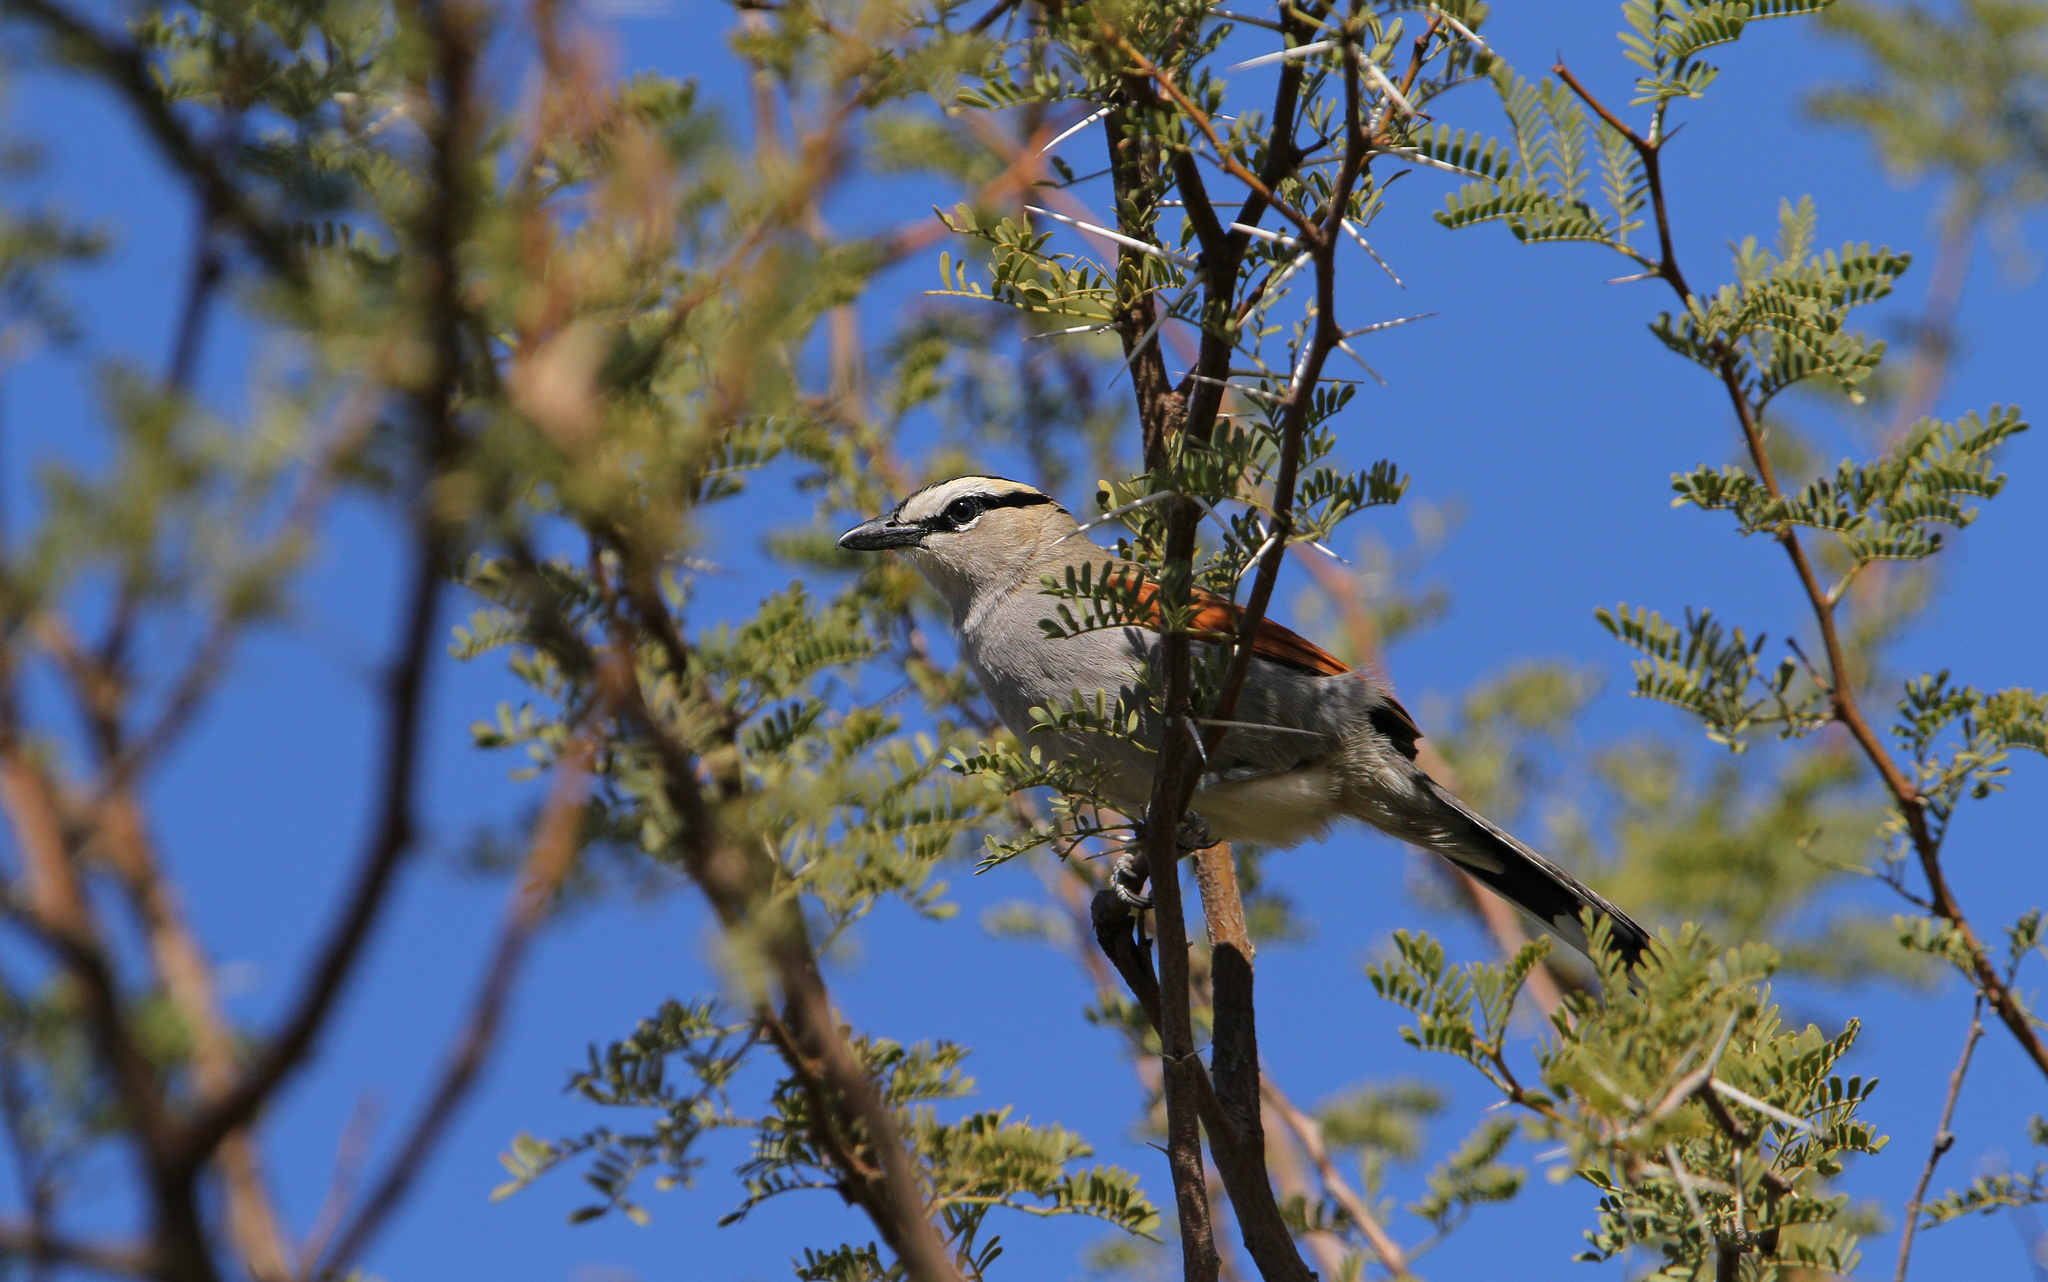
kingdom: Animalia
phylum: Chordata
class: Aves
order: Passeriformes
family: Malaconotidae
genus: Tchagra
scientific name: Tchagra senegalus
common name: Black-crowned tchagra
